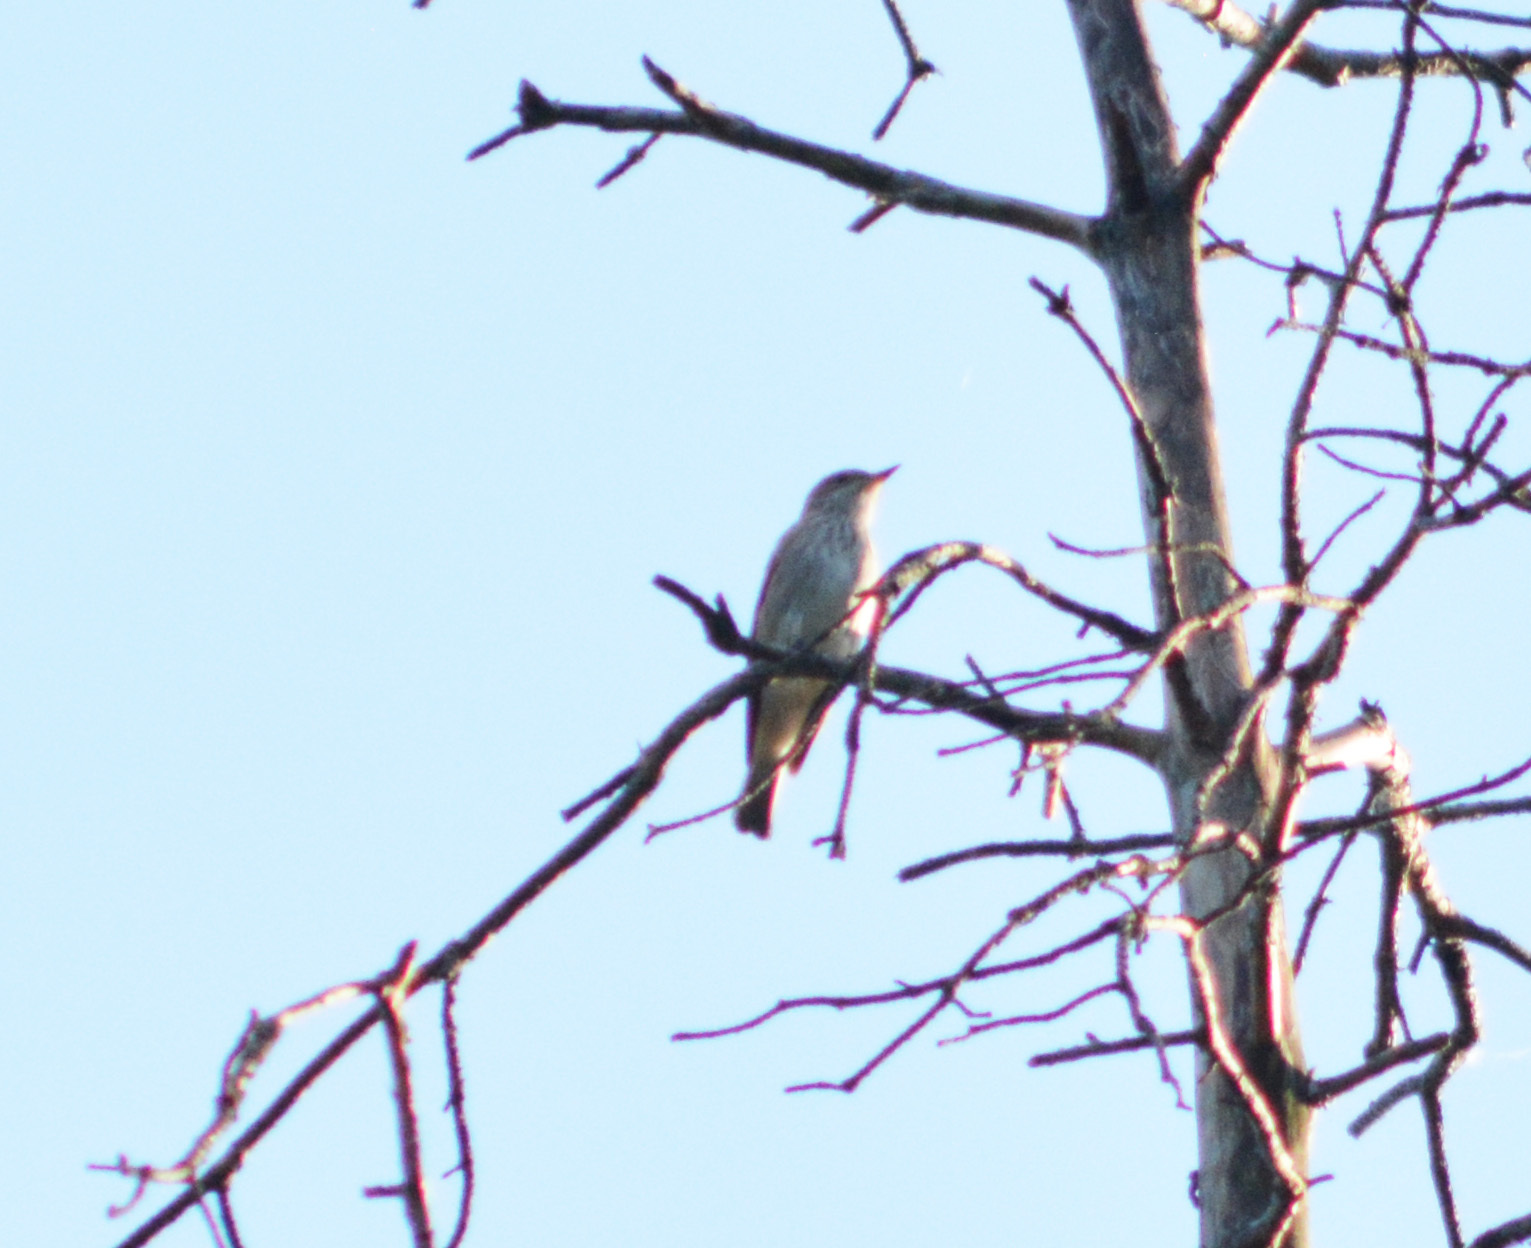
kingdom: Animalia
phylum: Chordata
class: Aves
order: Passeriformes
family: Muscicapidae
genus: Muscicapa
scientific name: Muscicapa striata
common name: Spotted flycatcher
